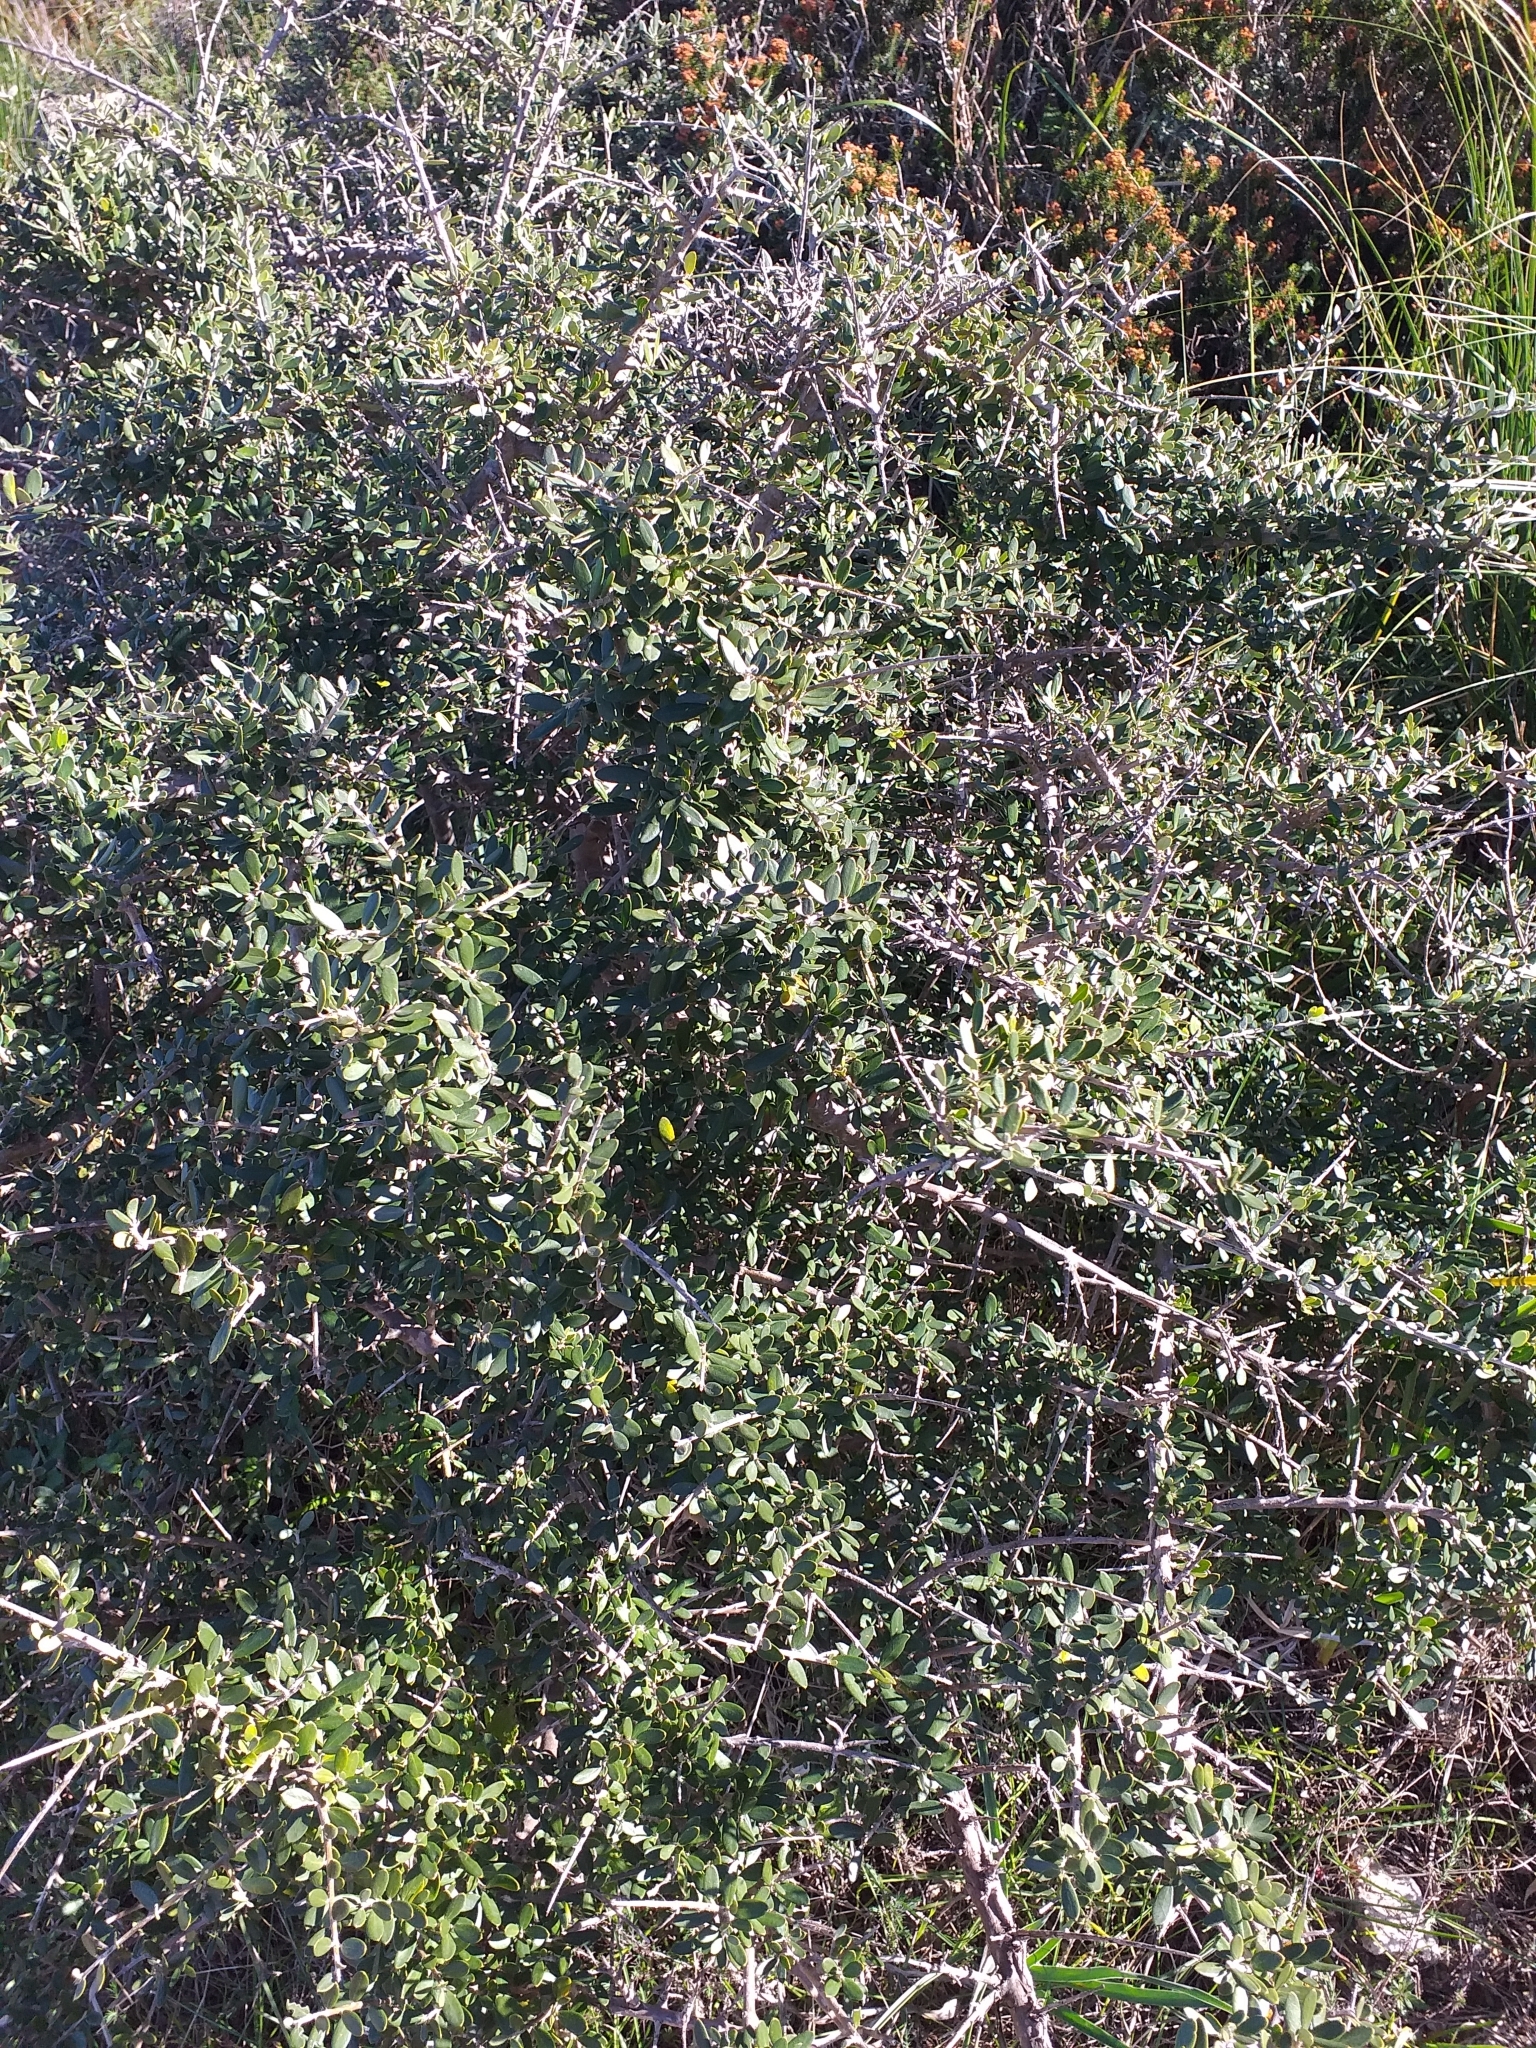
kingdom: Plantae
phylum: Tracheophyta
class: Magnoliopsida
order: Lamiales
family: Oleaceae
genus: Olea
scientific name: Olea europaea
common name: Olive
